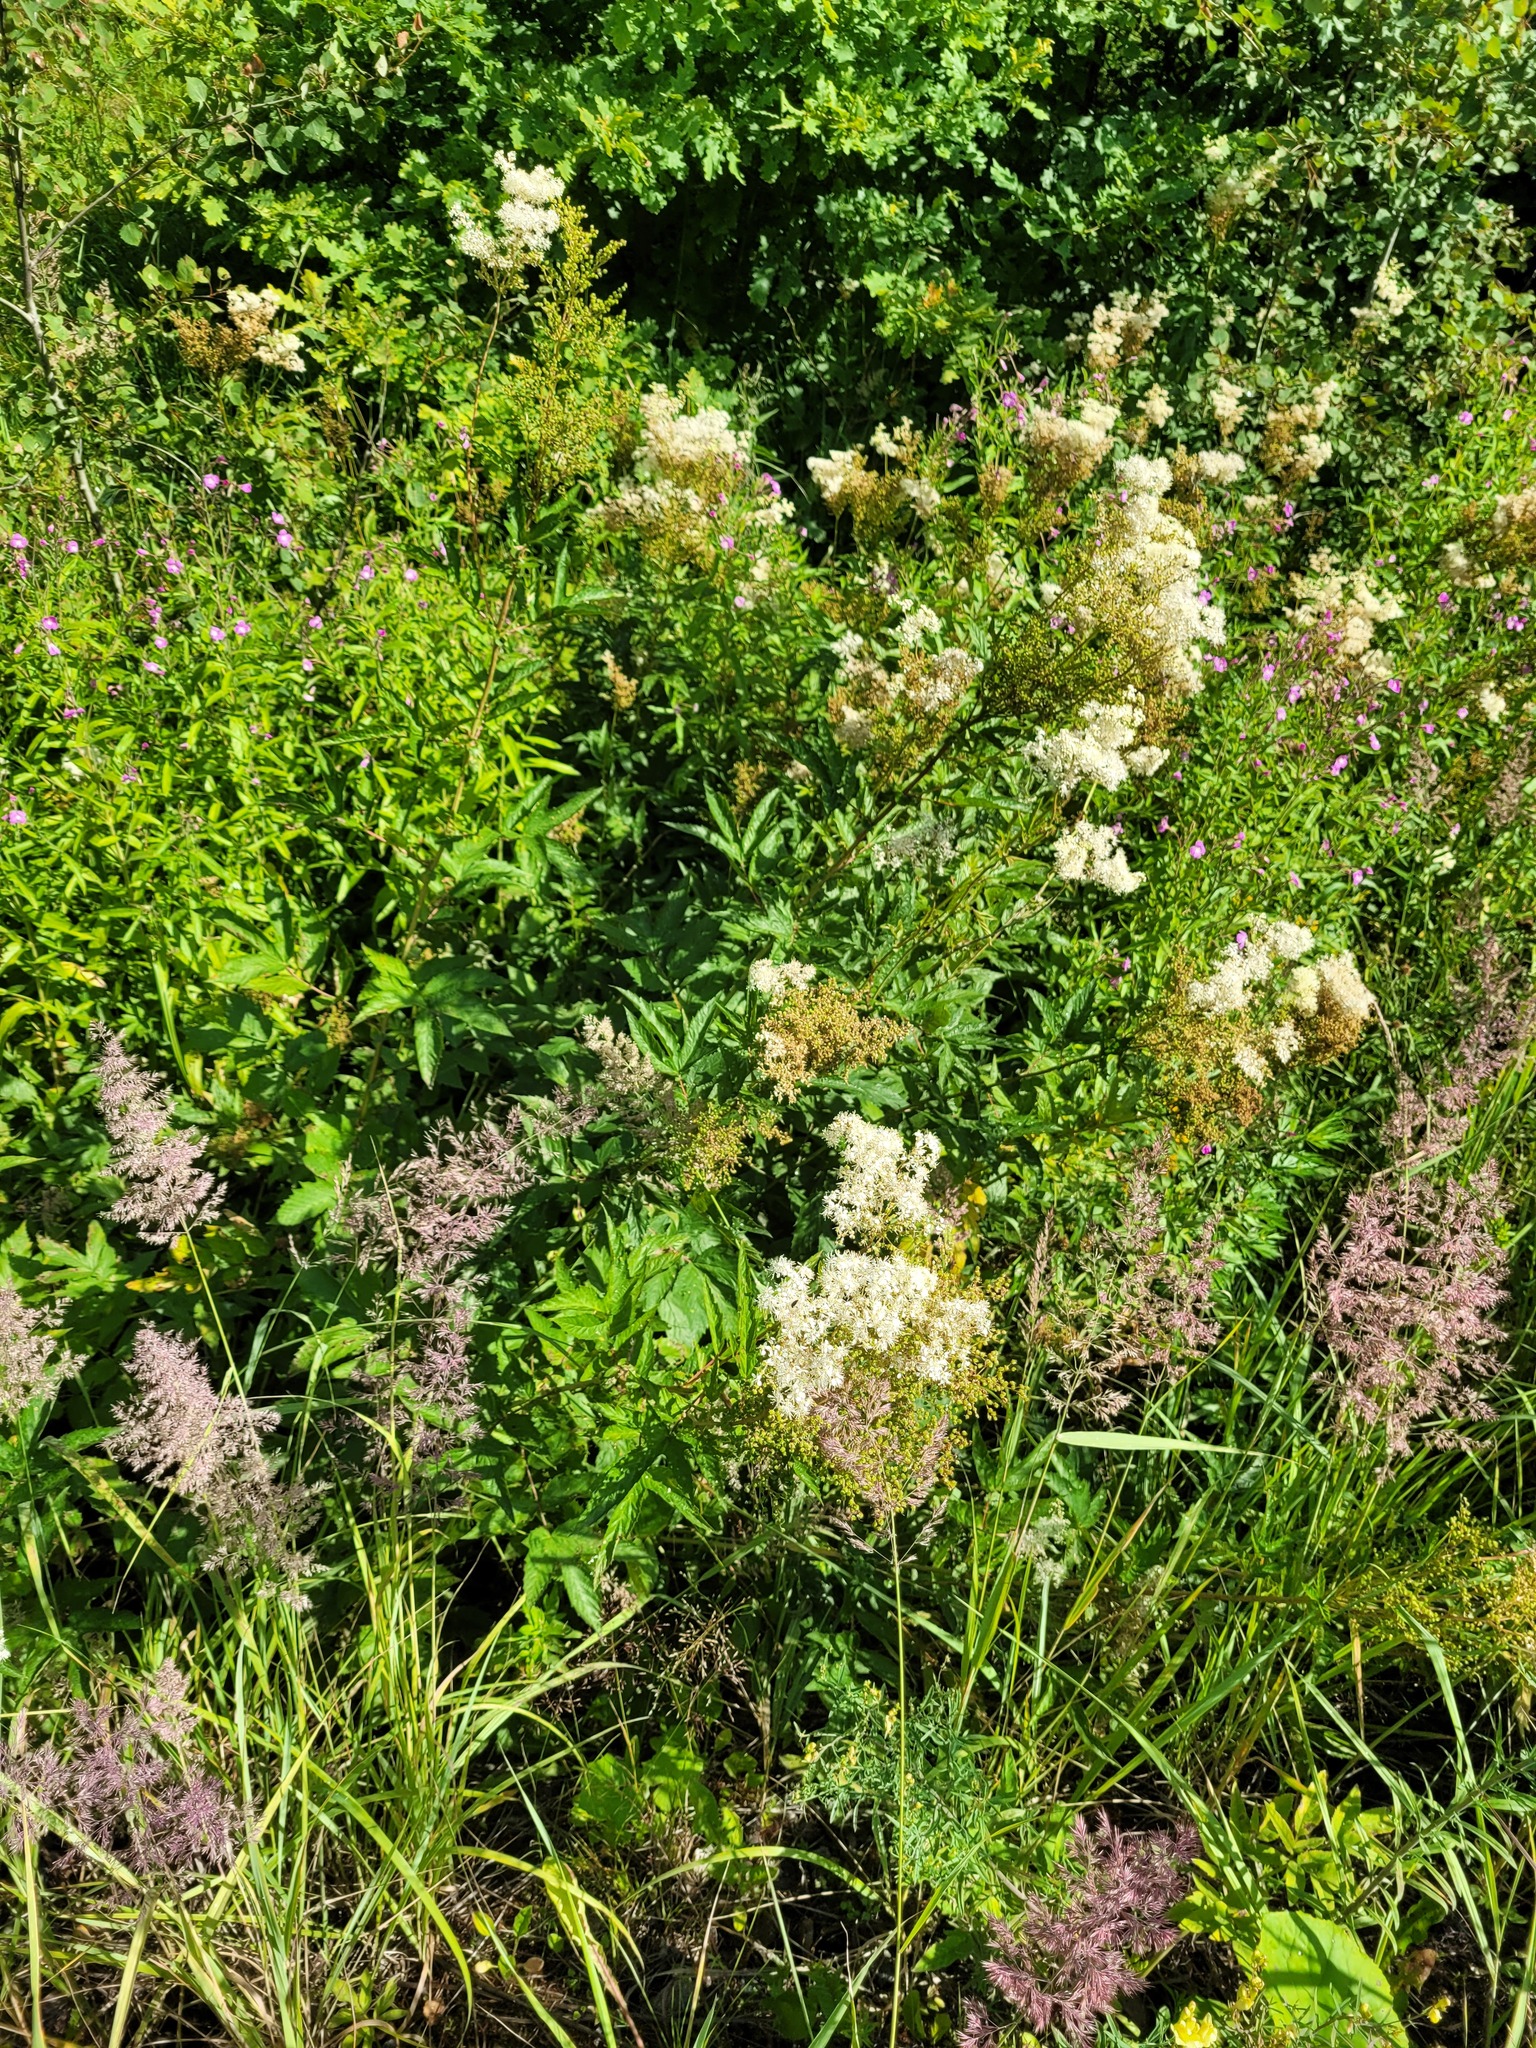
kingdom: Plantae
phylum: Tracheophyta
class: Magnoliopsida
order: Rosales
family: Rosaceae
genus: Filipendula
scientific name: Filipendula ulmaria
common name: Meadowsweet
